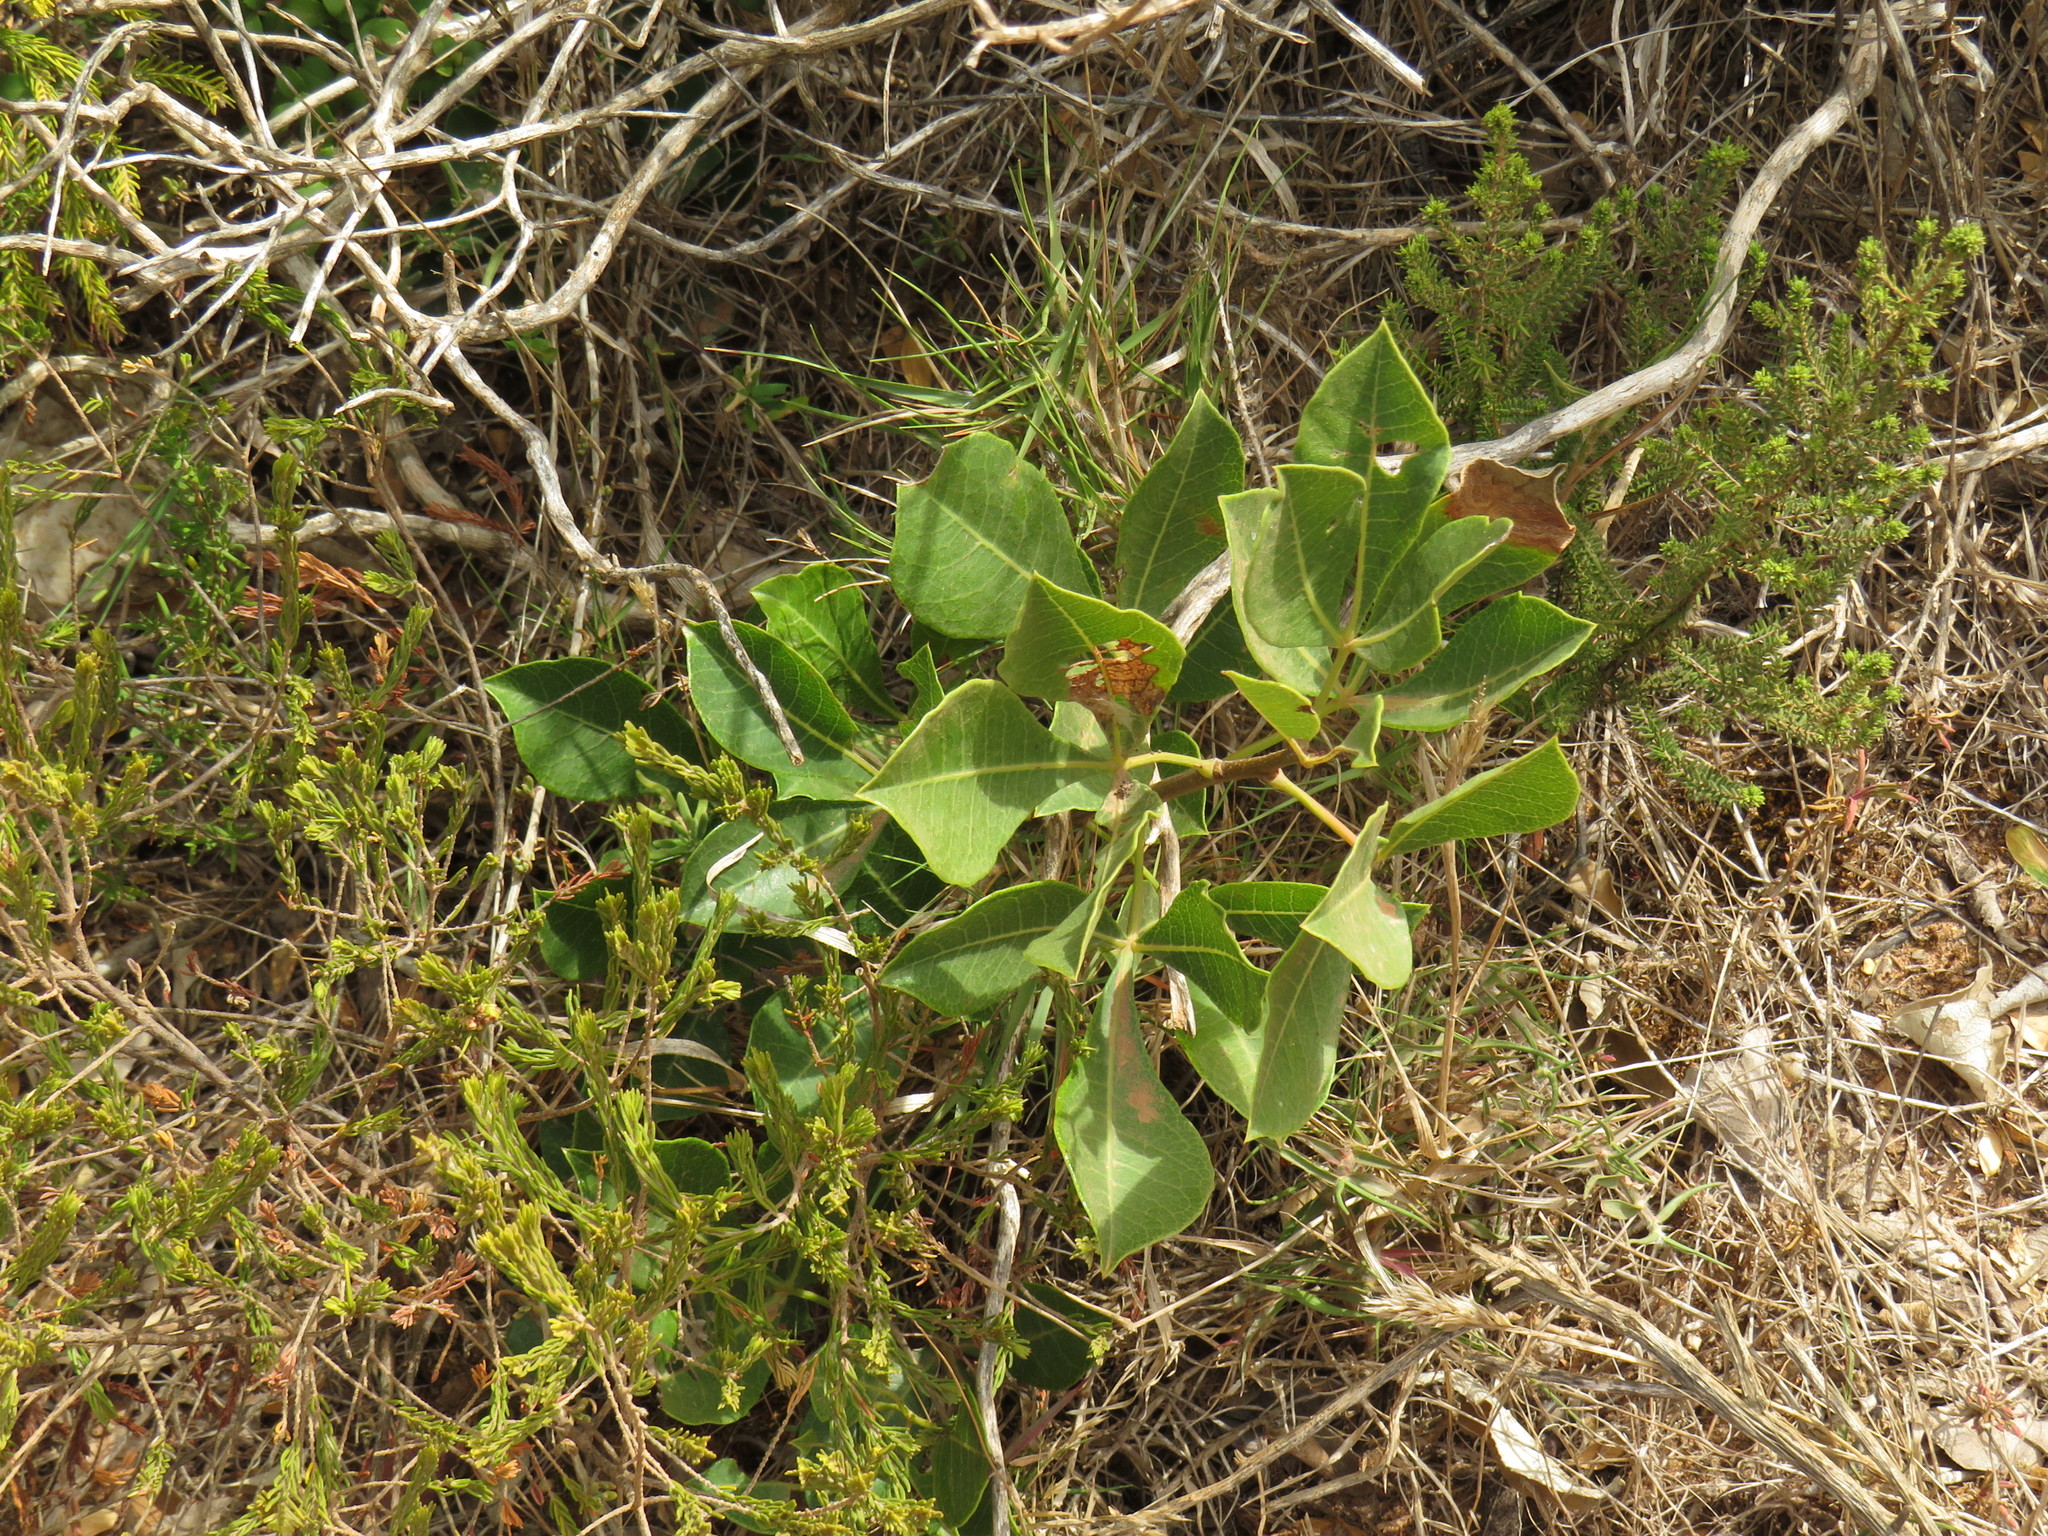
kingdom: Plantae
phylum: Tracheophyta
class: Magnoliopsida
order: Sapindales
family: Anacardiaceae
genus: Searsia
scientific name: Searsia laevigata
